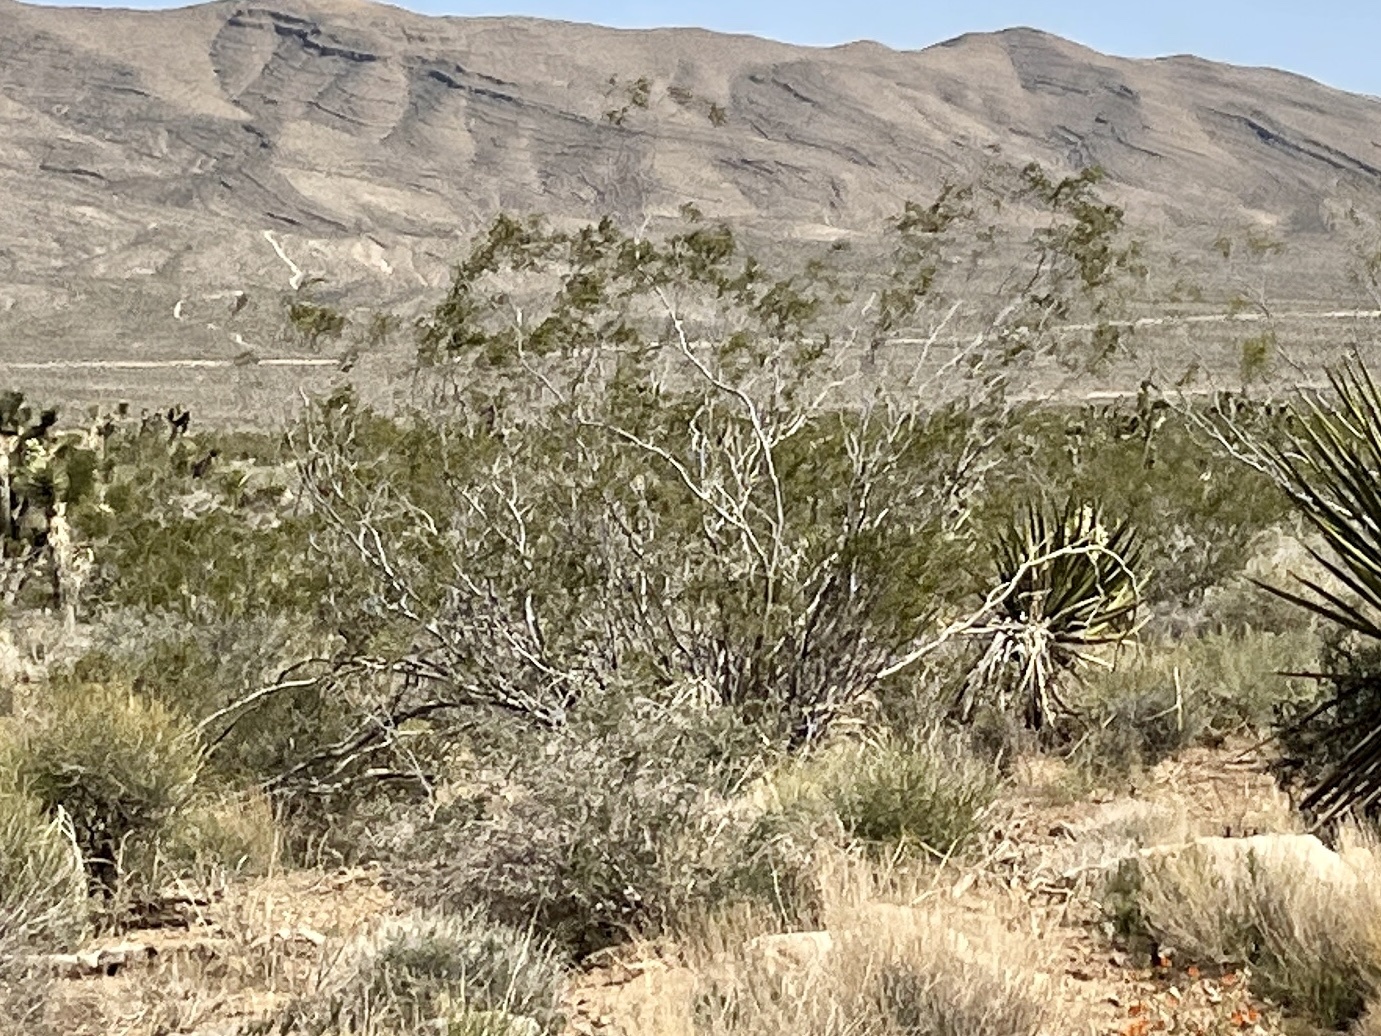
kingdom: Plantae
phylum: Tracheophyta
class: Magnoliopsida
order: Zygophyllales
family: Zygophyllaceae
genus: Larrea
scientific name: Larrea tridentata
